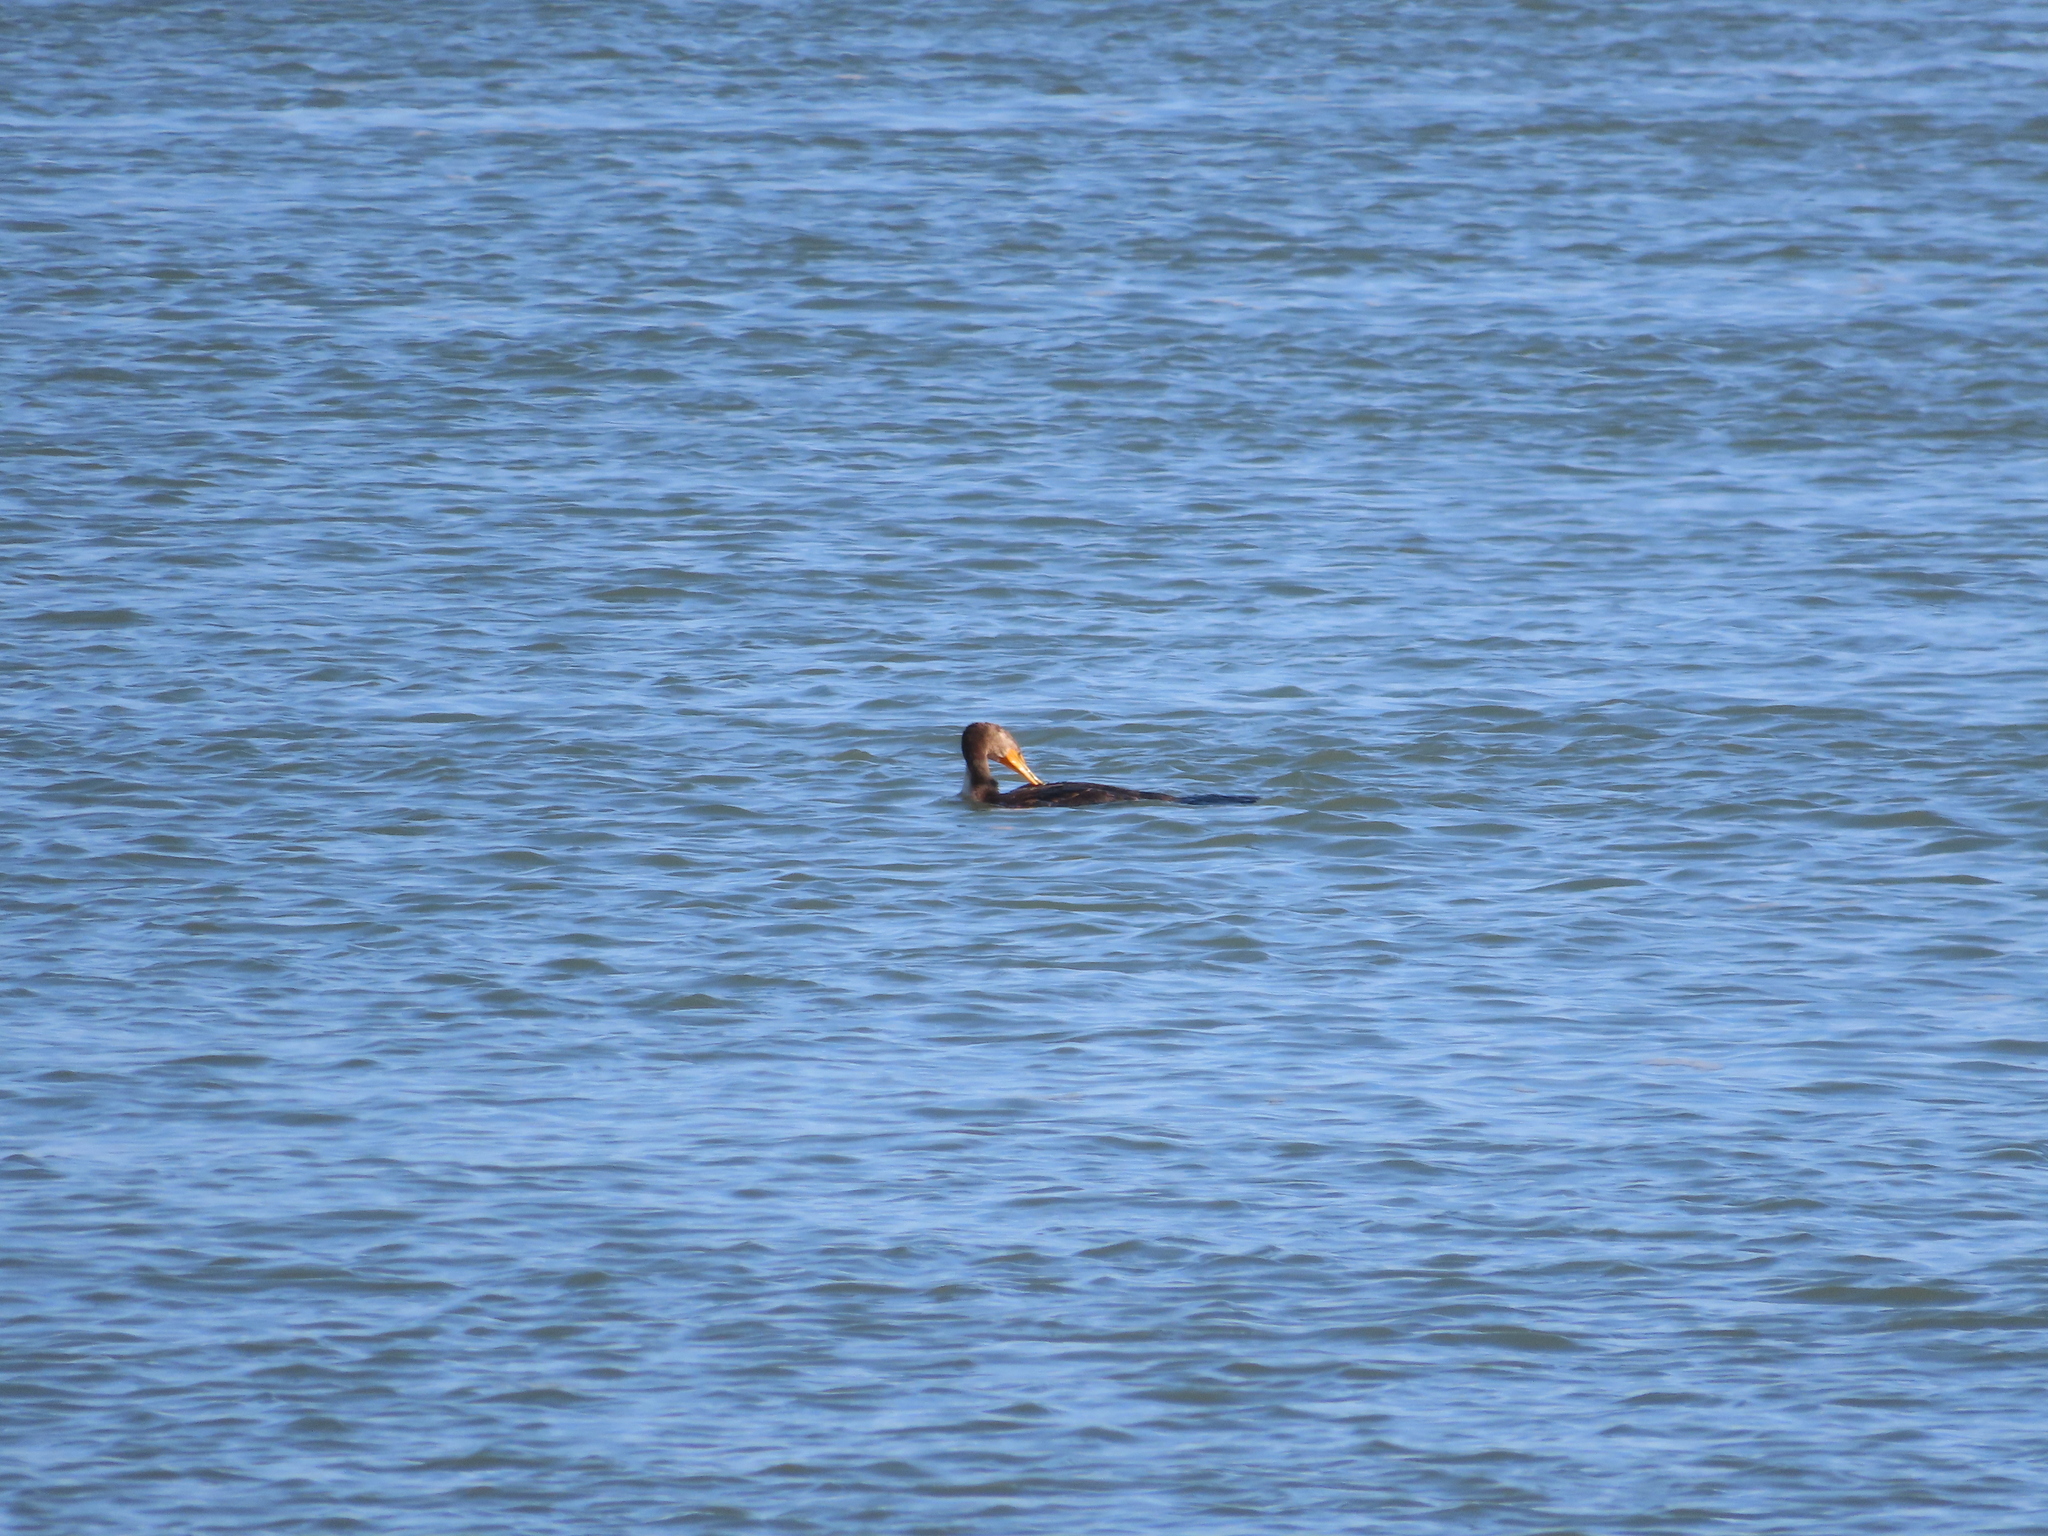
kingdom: Animalia
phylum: Chordata
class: Aves
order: Suliformes
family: Phalacrocoracidae
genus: Phalacrocorax
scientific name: Phalacrocorax auritus
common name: Double-crested cormorant
